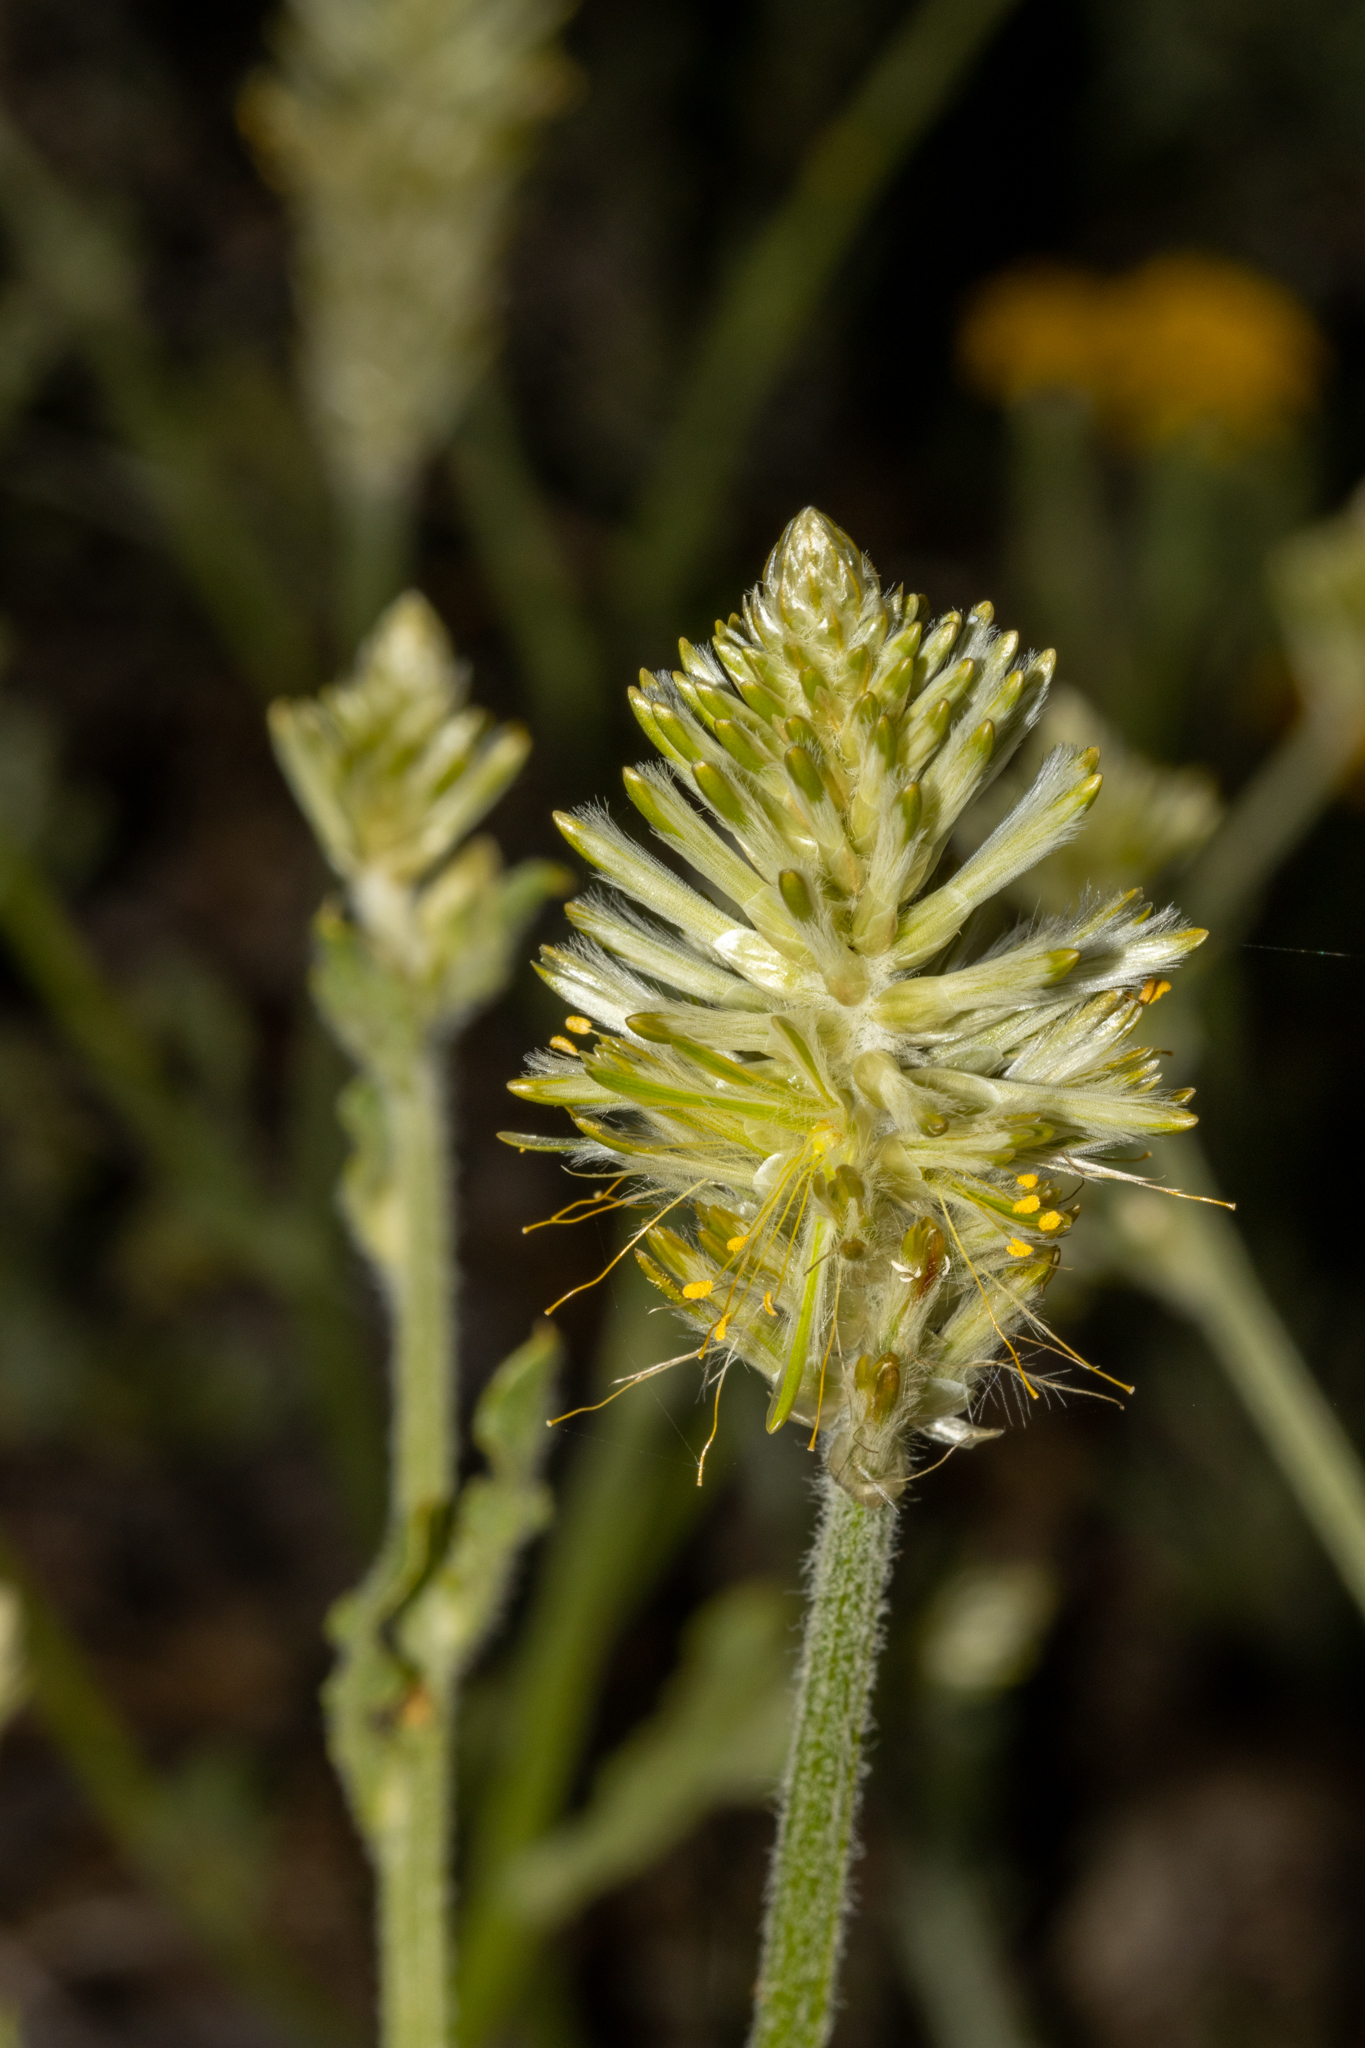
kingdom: Plantae
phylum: Tracheophyta
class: Magnoliopsida
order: Caryophyllales
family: Amaranthaceae
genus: Ptilotus
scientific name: Ptilotus polystachyus
